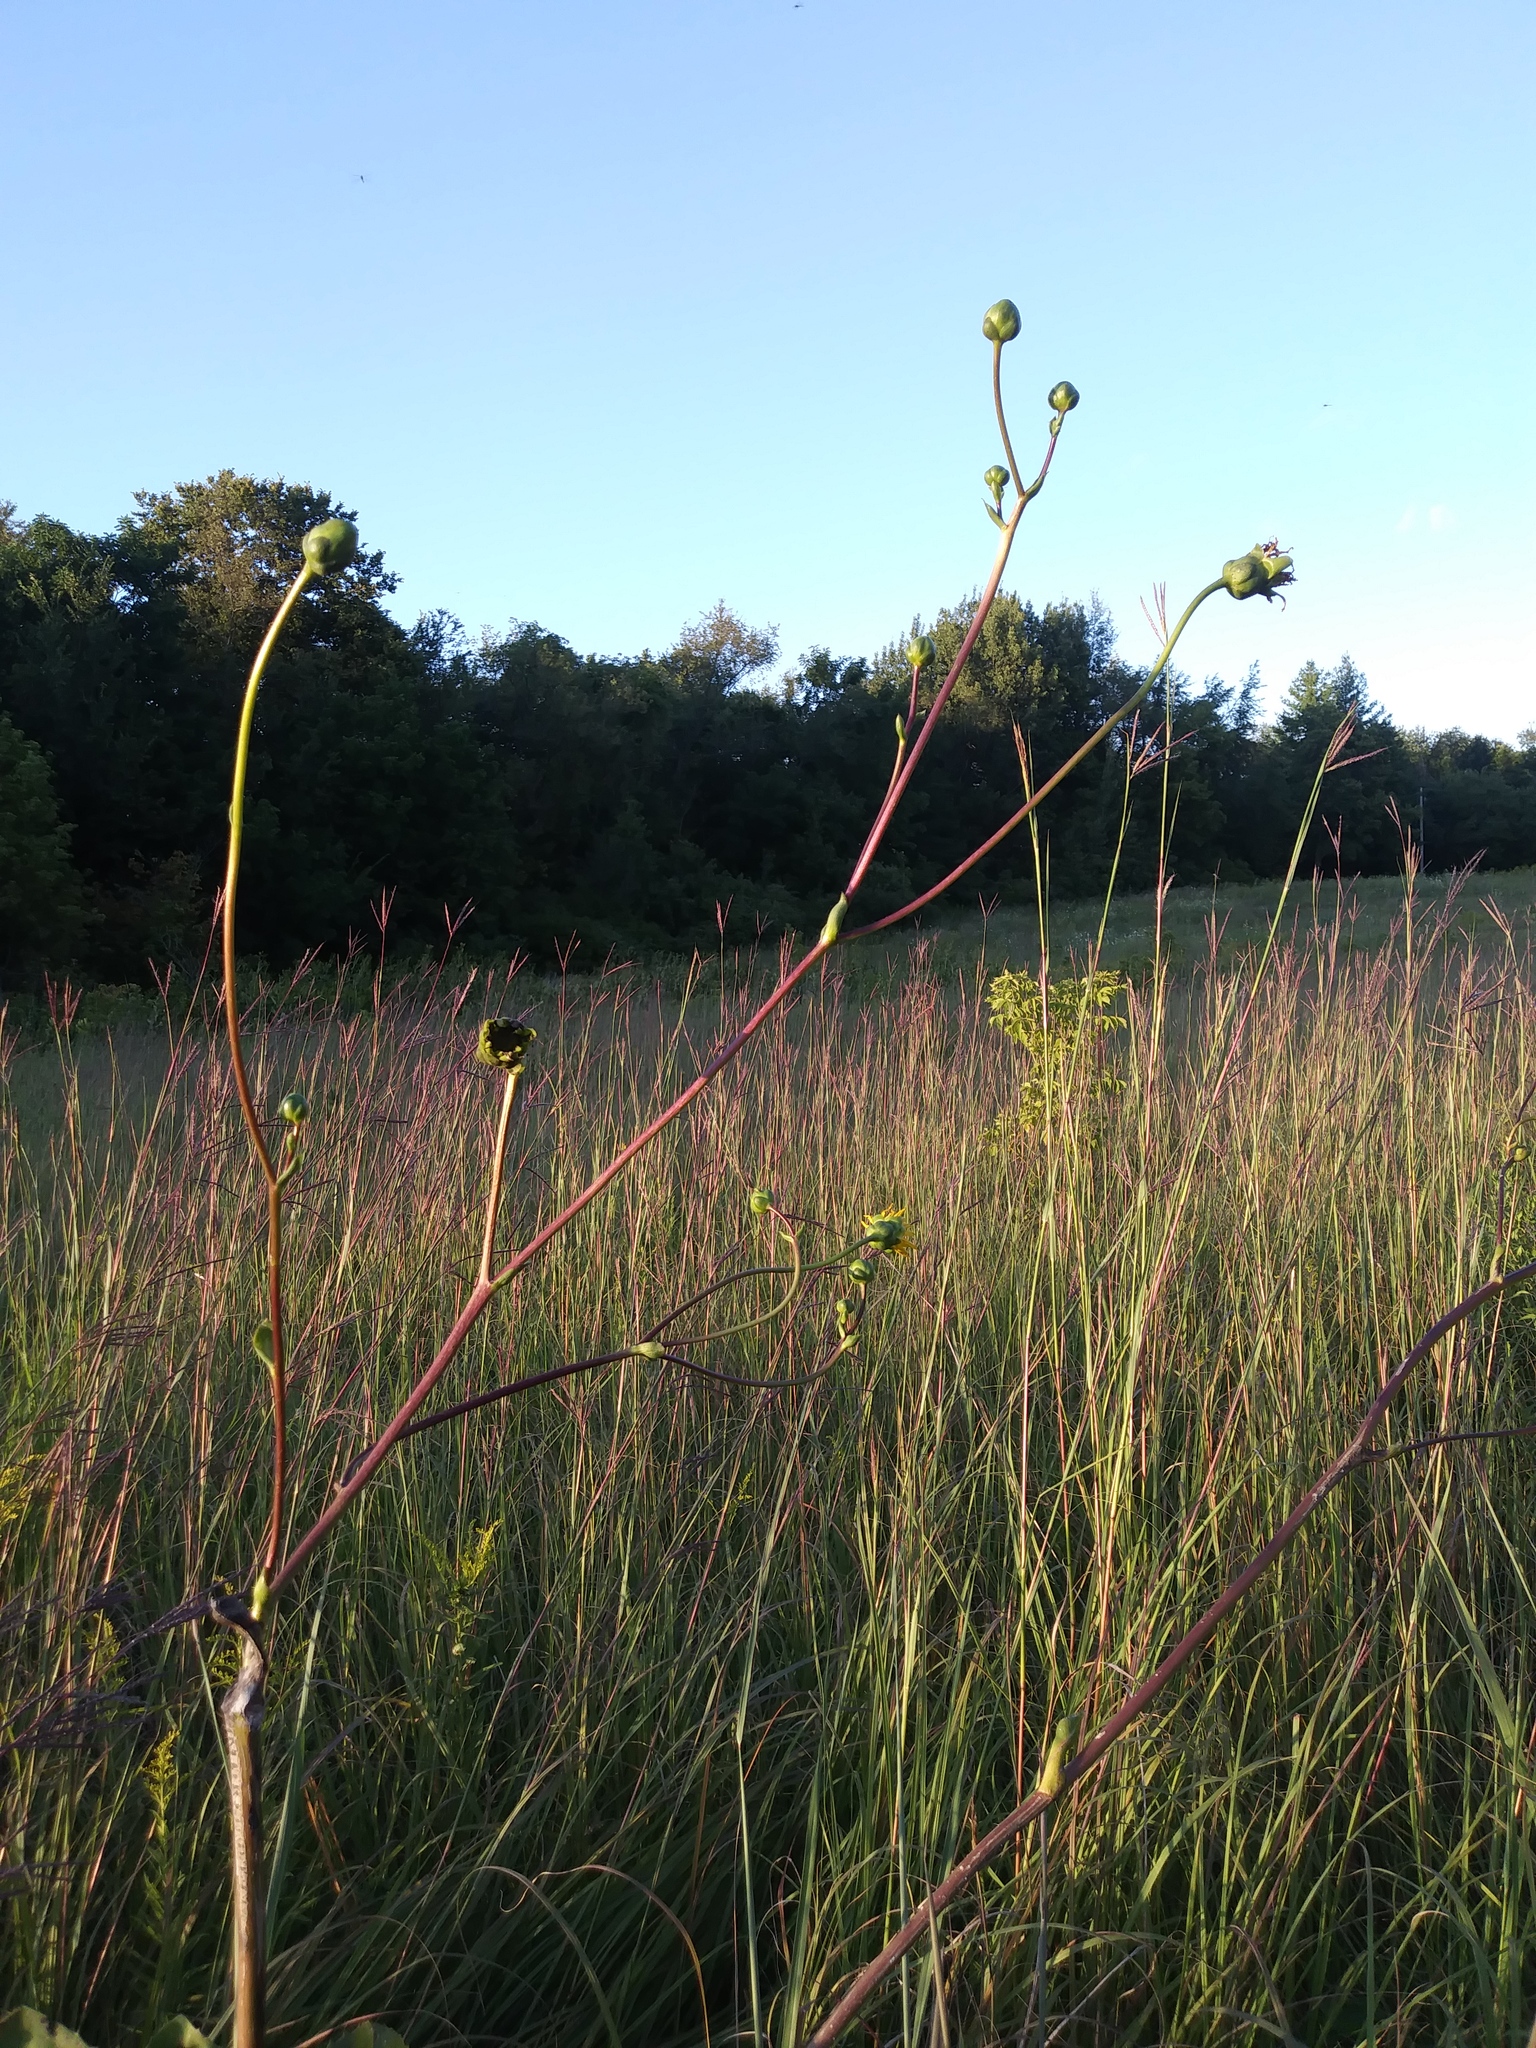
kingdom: Plantae
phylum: Tracheophyta
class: Magnoliopsida
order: Asterales
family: Asteraceae
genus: Silphium
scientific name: Silphium terebinthinaceum
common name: Basal-leaf rosinweed
